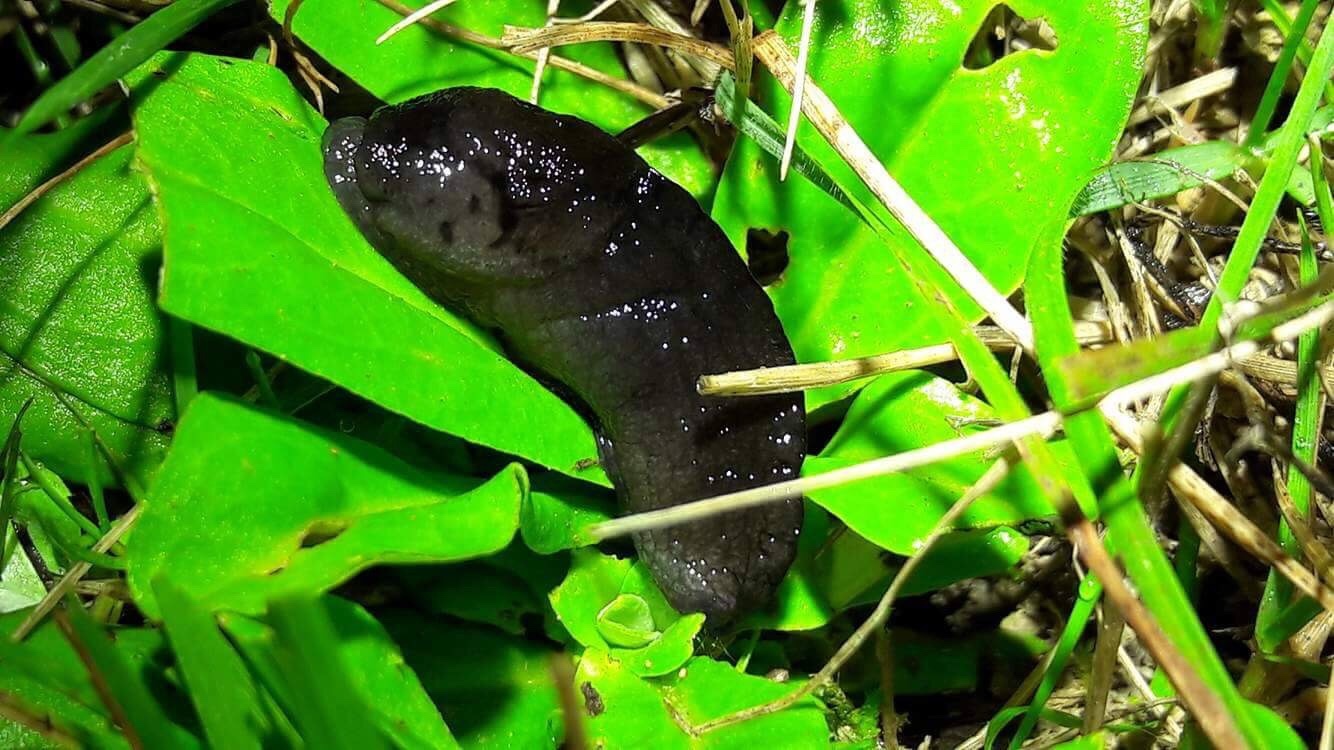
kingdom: Animalia
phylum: Mollusca
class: Gastropoda
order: Stylommatophora
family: Milacidae
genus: Milax
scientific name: Milax gagates
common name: Greenhouse slug
